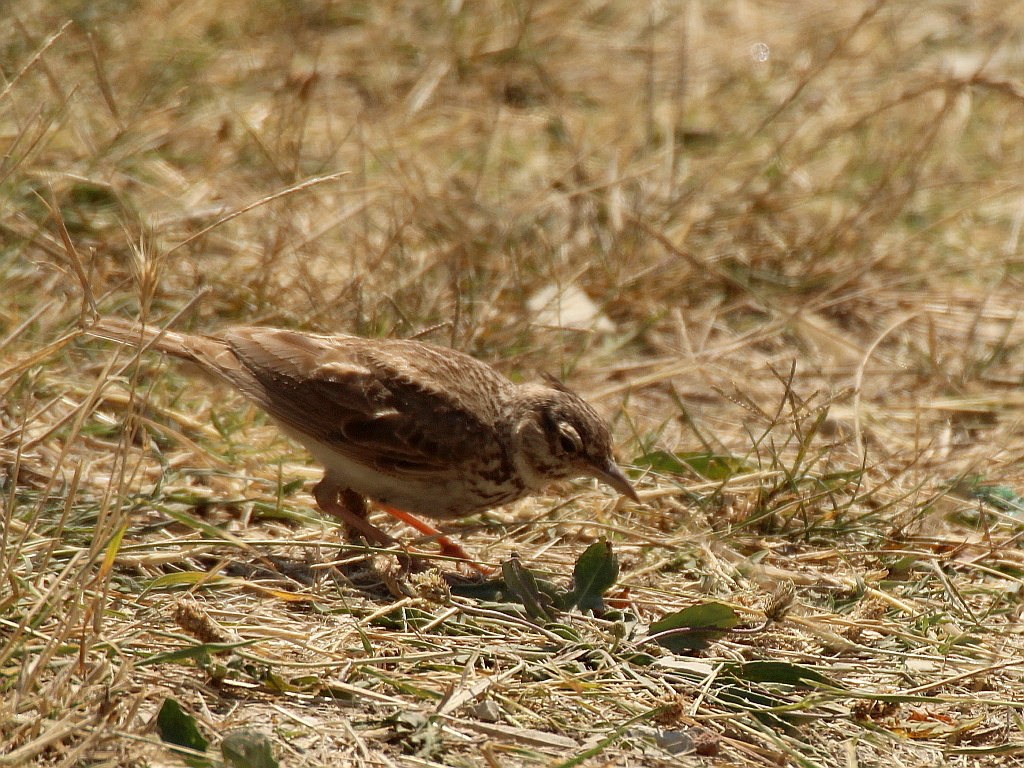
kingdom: Animalia
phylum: Chordata
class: Aves
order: Passeriformes
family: Alaudidae
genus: Galerida
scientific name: Galerida cristata
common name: Crested lark
